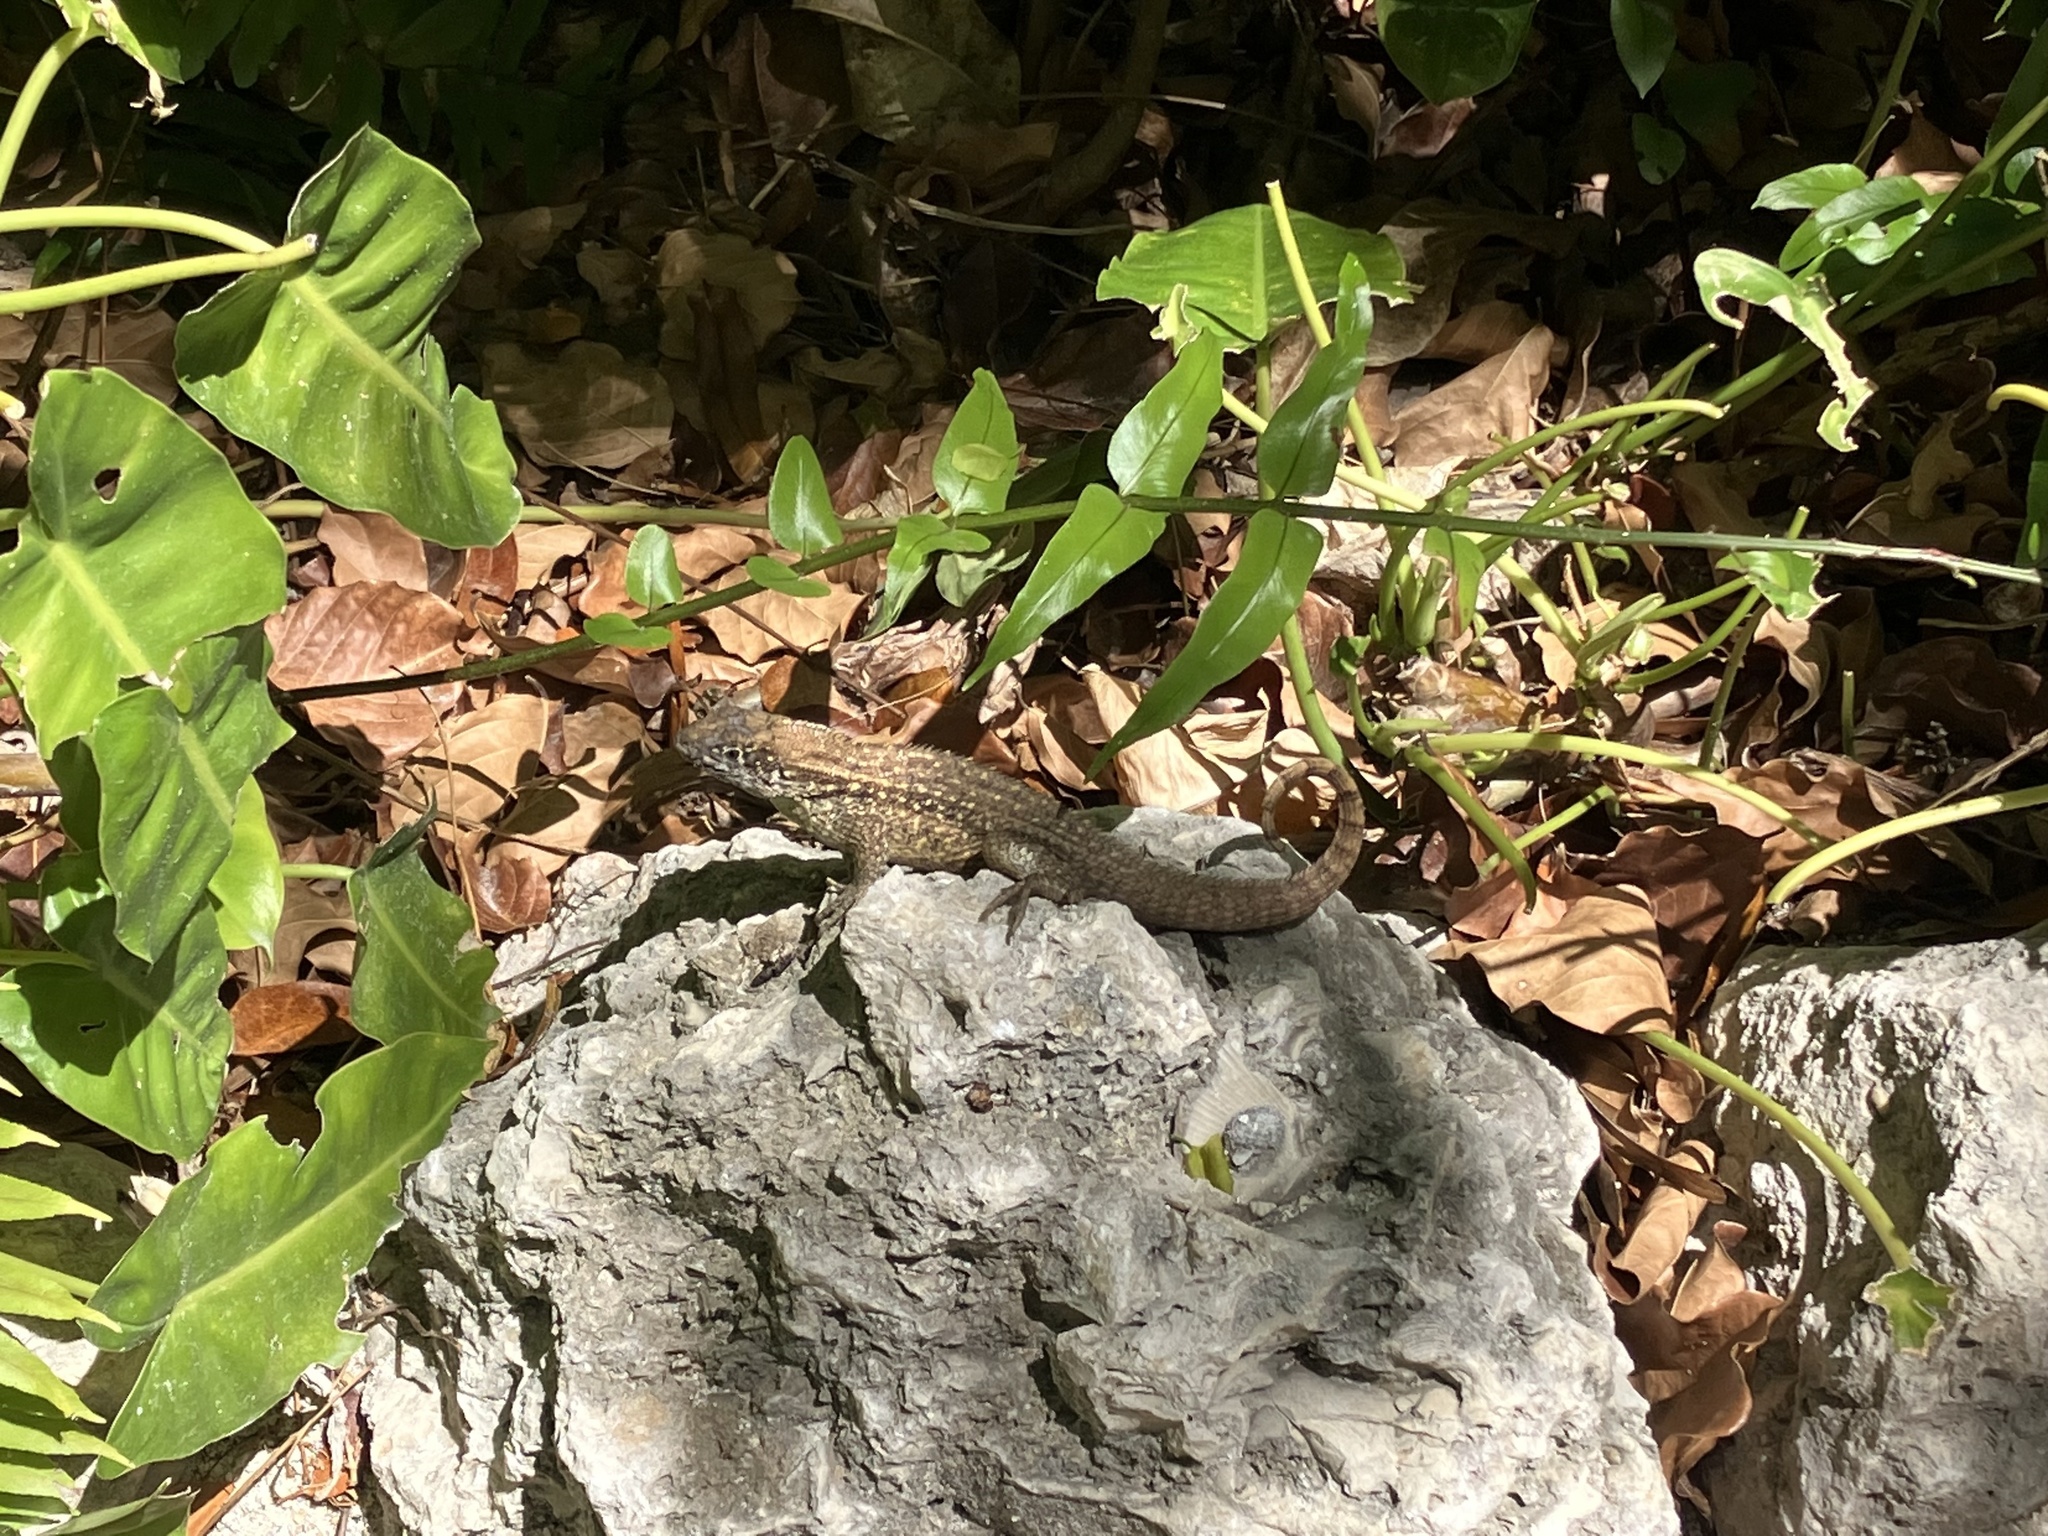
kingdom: Animalia
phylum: Chordata
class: Squamata
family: Leiocephalidae
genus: Leiocephalus
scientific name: Leiocephalus carinatus
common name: Northern curly-tailed lizard
